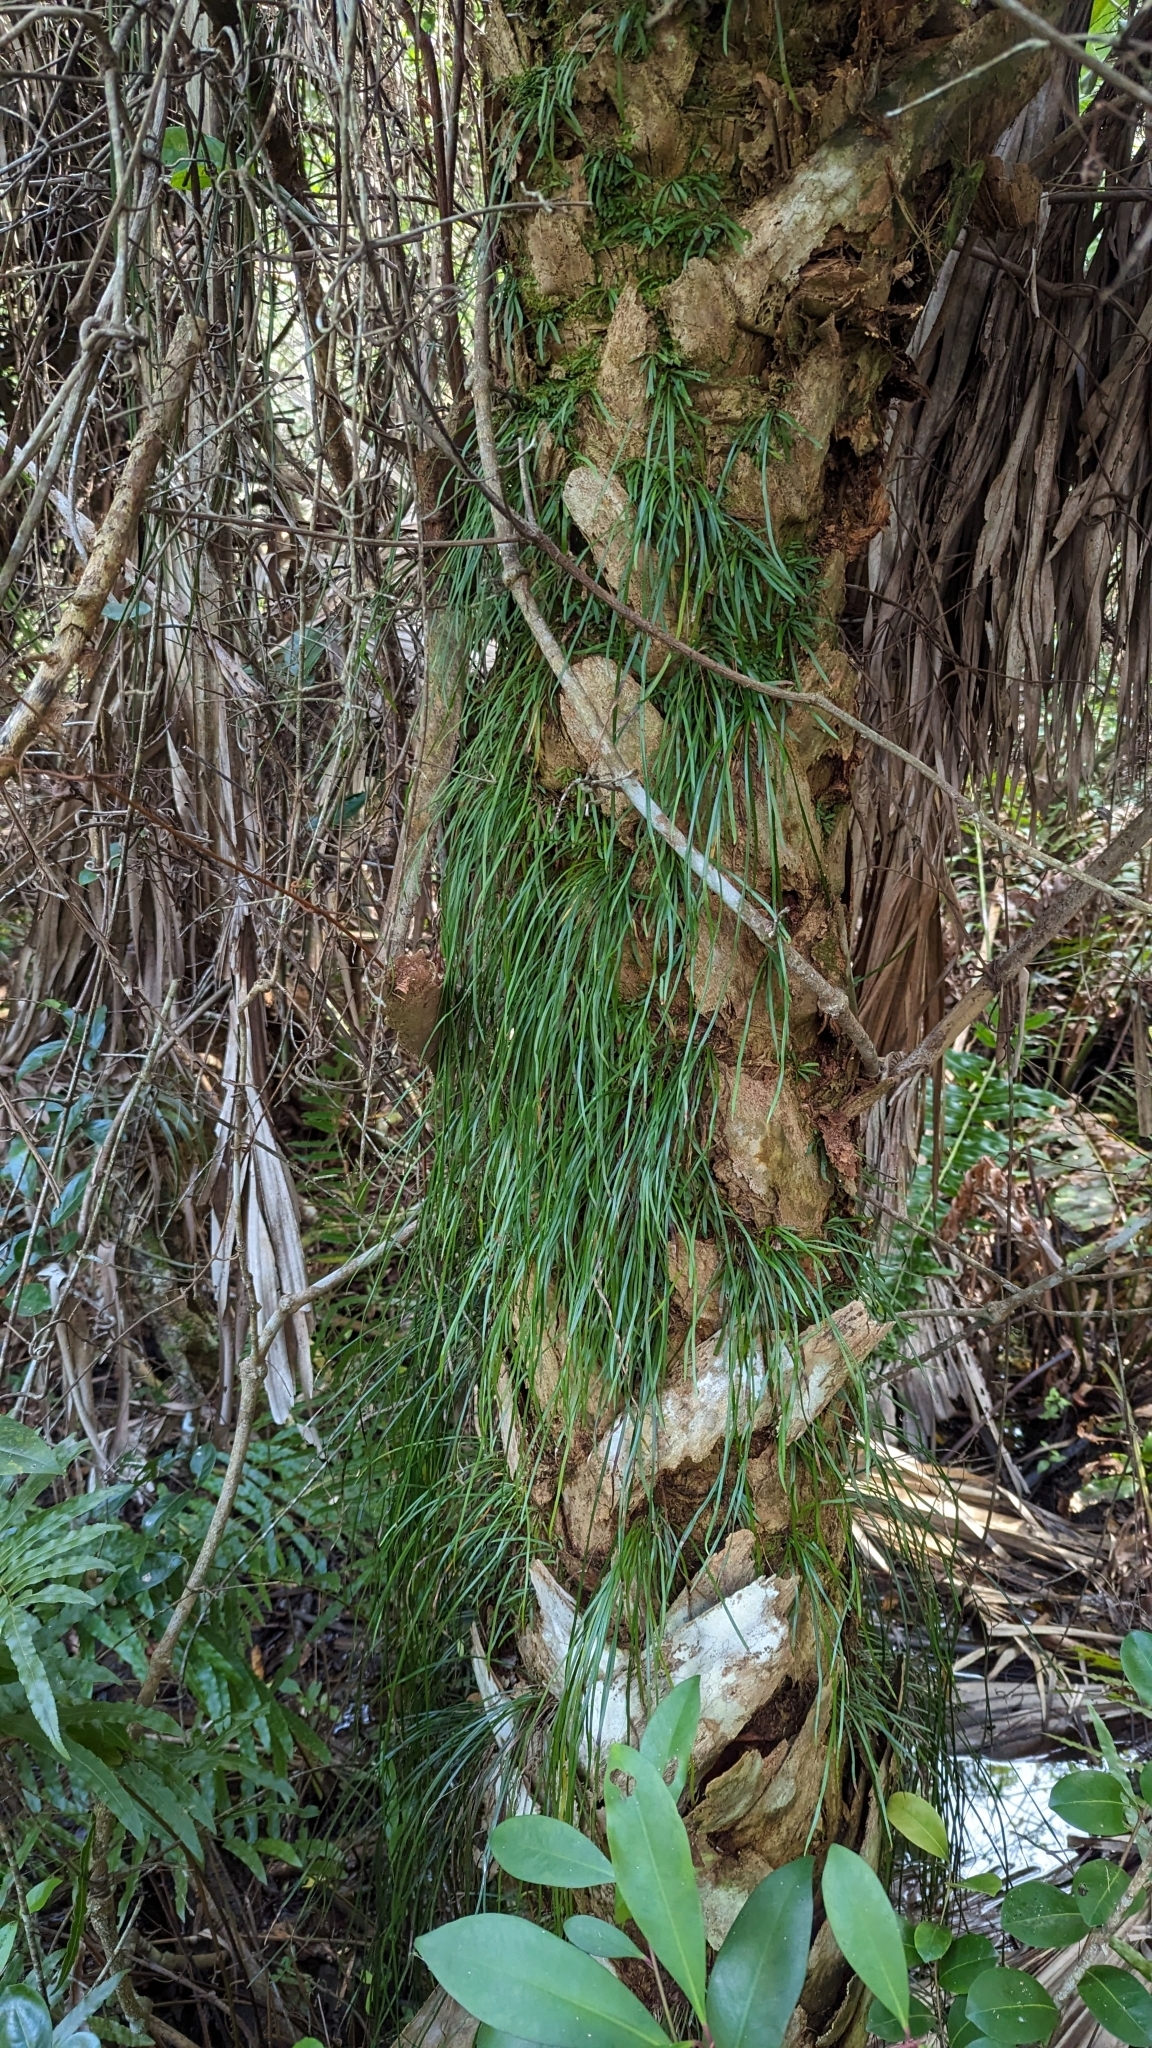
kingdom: Plantae
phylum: Tracheophyta
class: Polypodiopsida
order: Polypodiales
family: Pteridaceae
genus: Vittaria
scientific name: Vittaria lineata
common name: Shoestring fern
